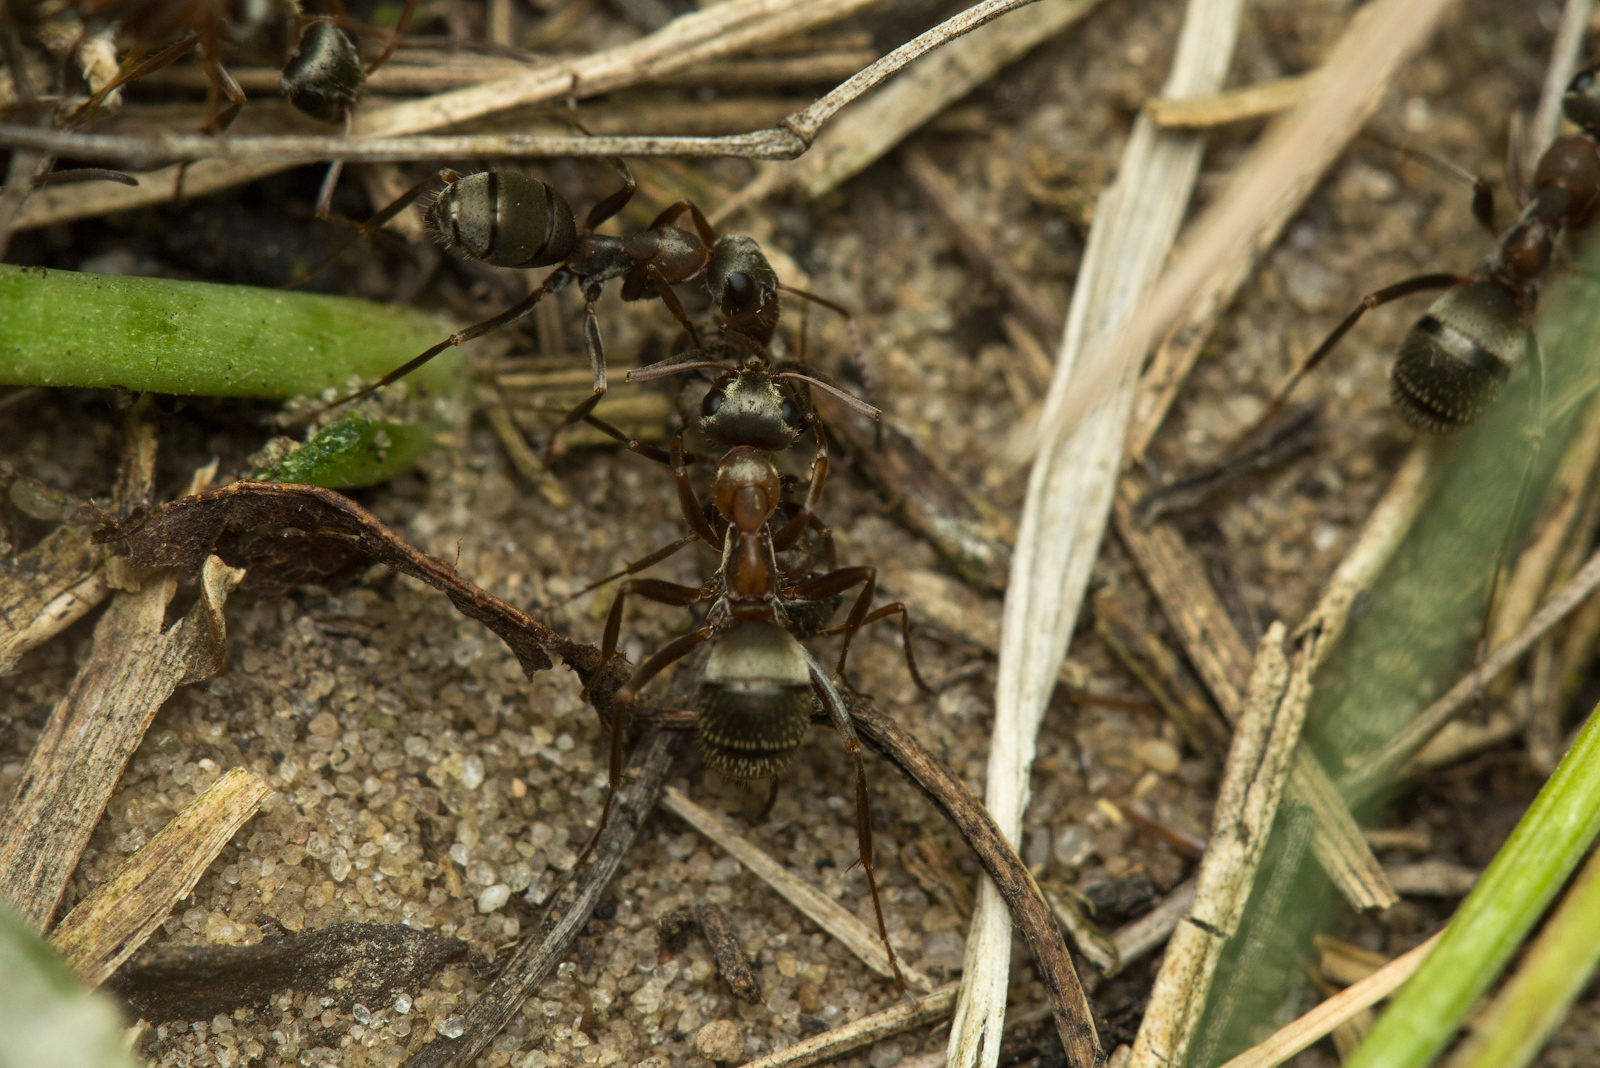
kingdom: Animalia
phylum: Arthropoda
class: Insecta
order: Hymenoptera
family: Formicidae
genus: Formica
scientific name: Formica cinerea
